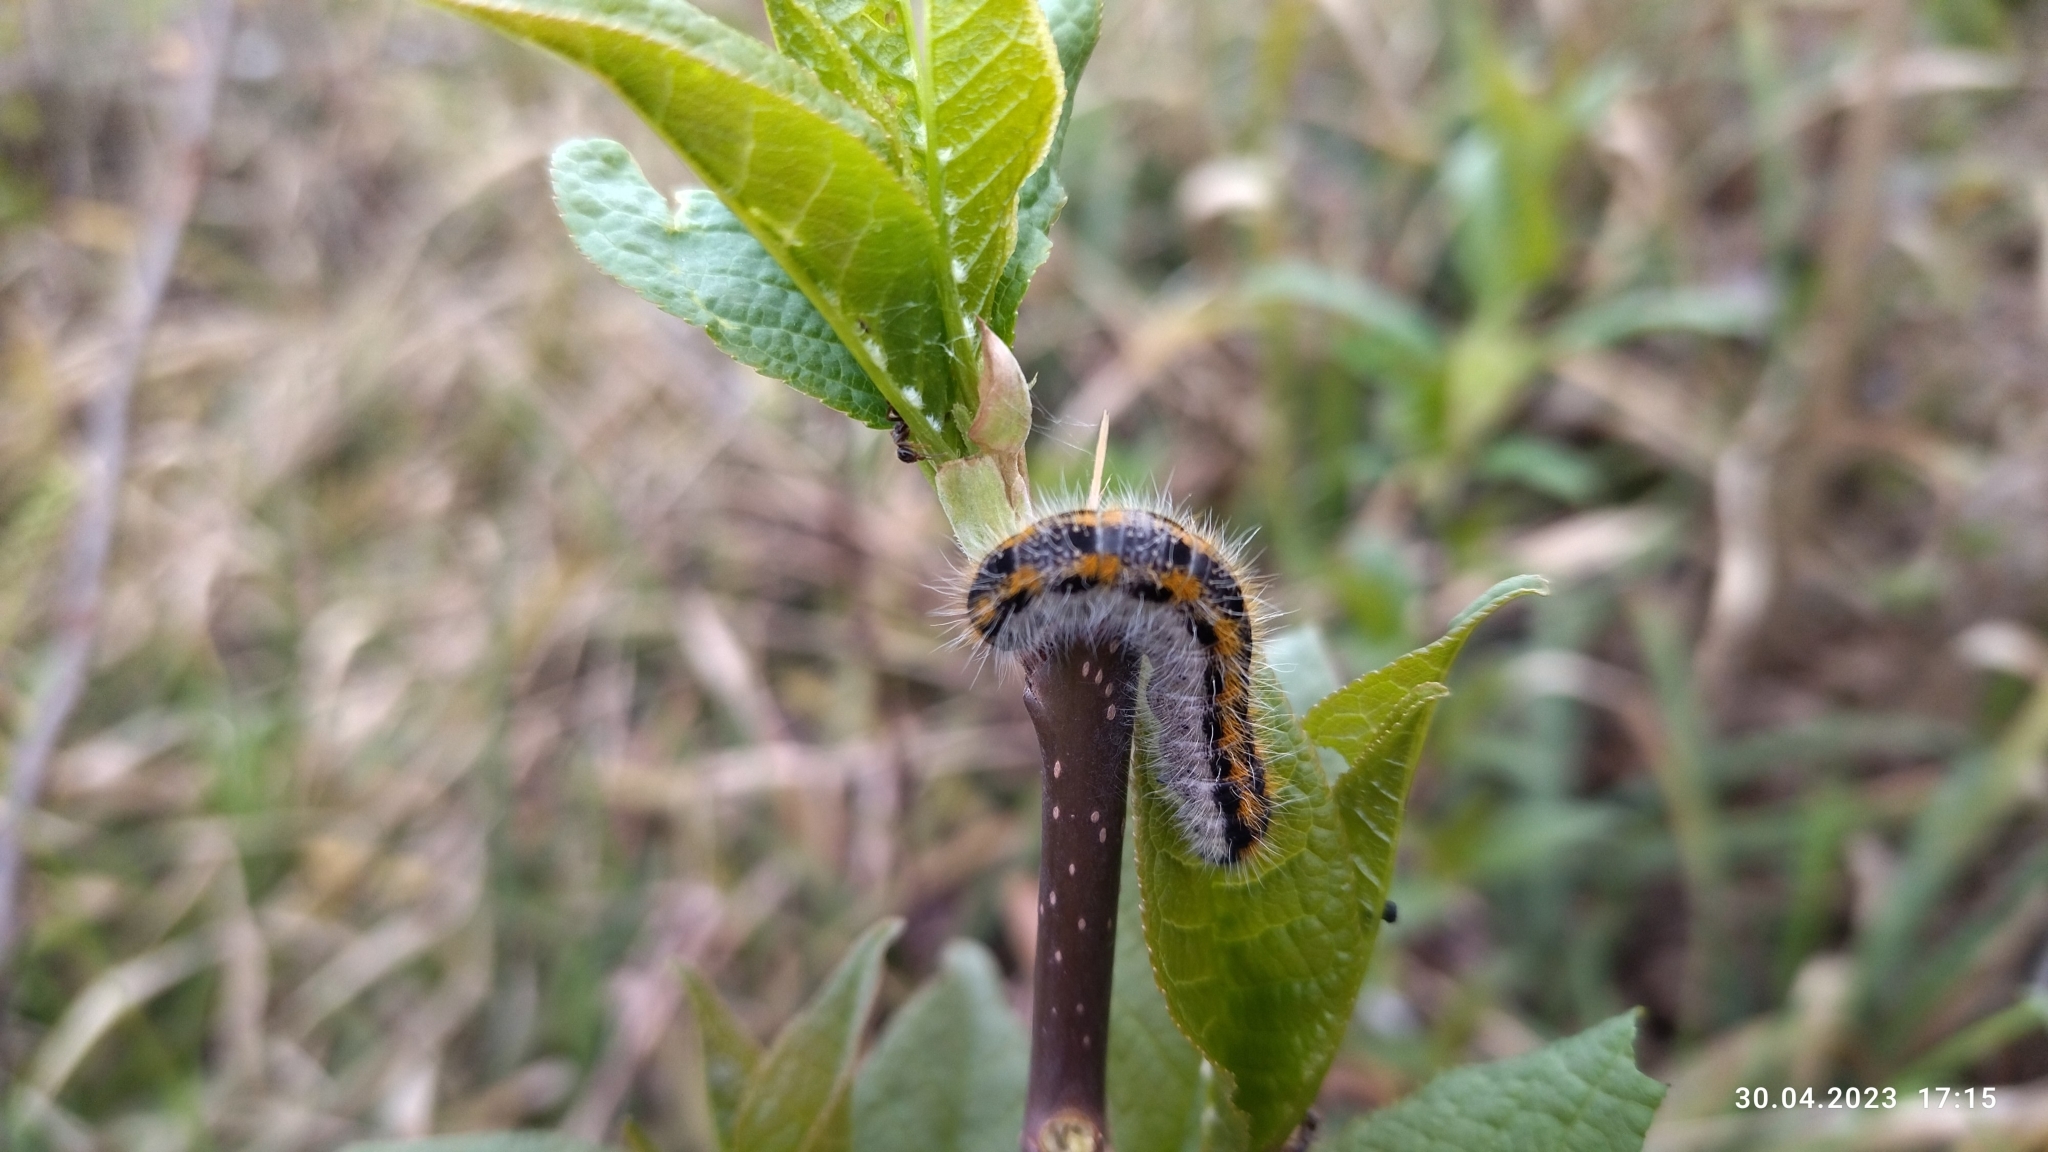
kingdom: Animalia
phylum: Arthropoda
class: Insecta
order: Lepidoptera
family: Pieridae
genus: Aporia
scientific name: Aporia crataegi
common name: Black-veined white
